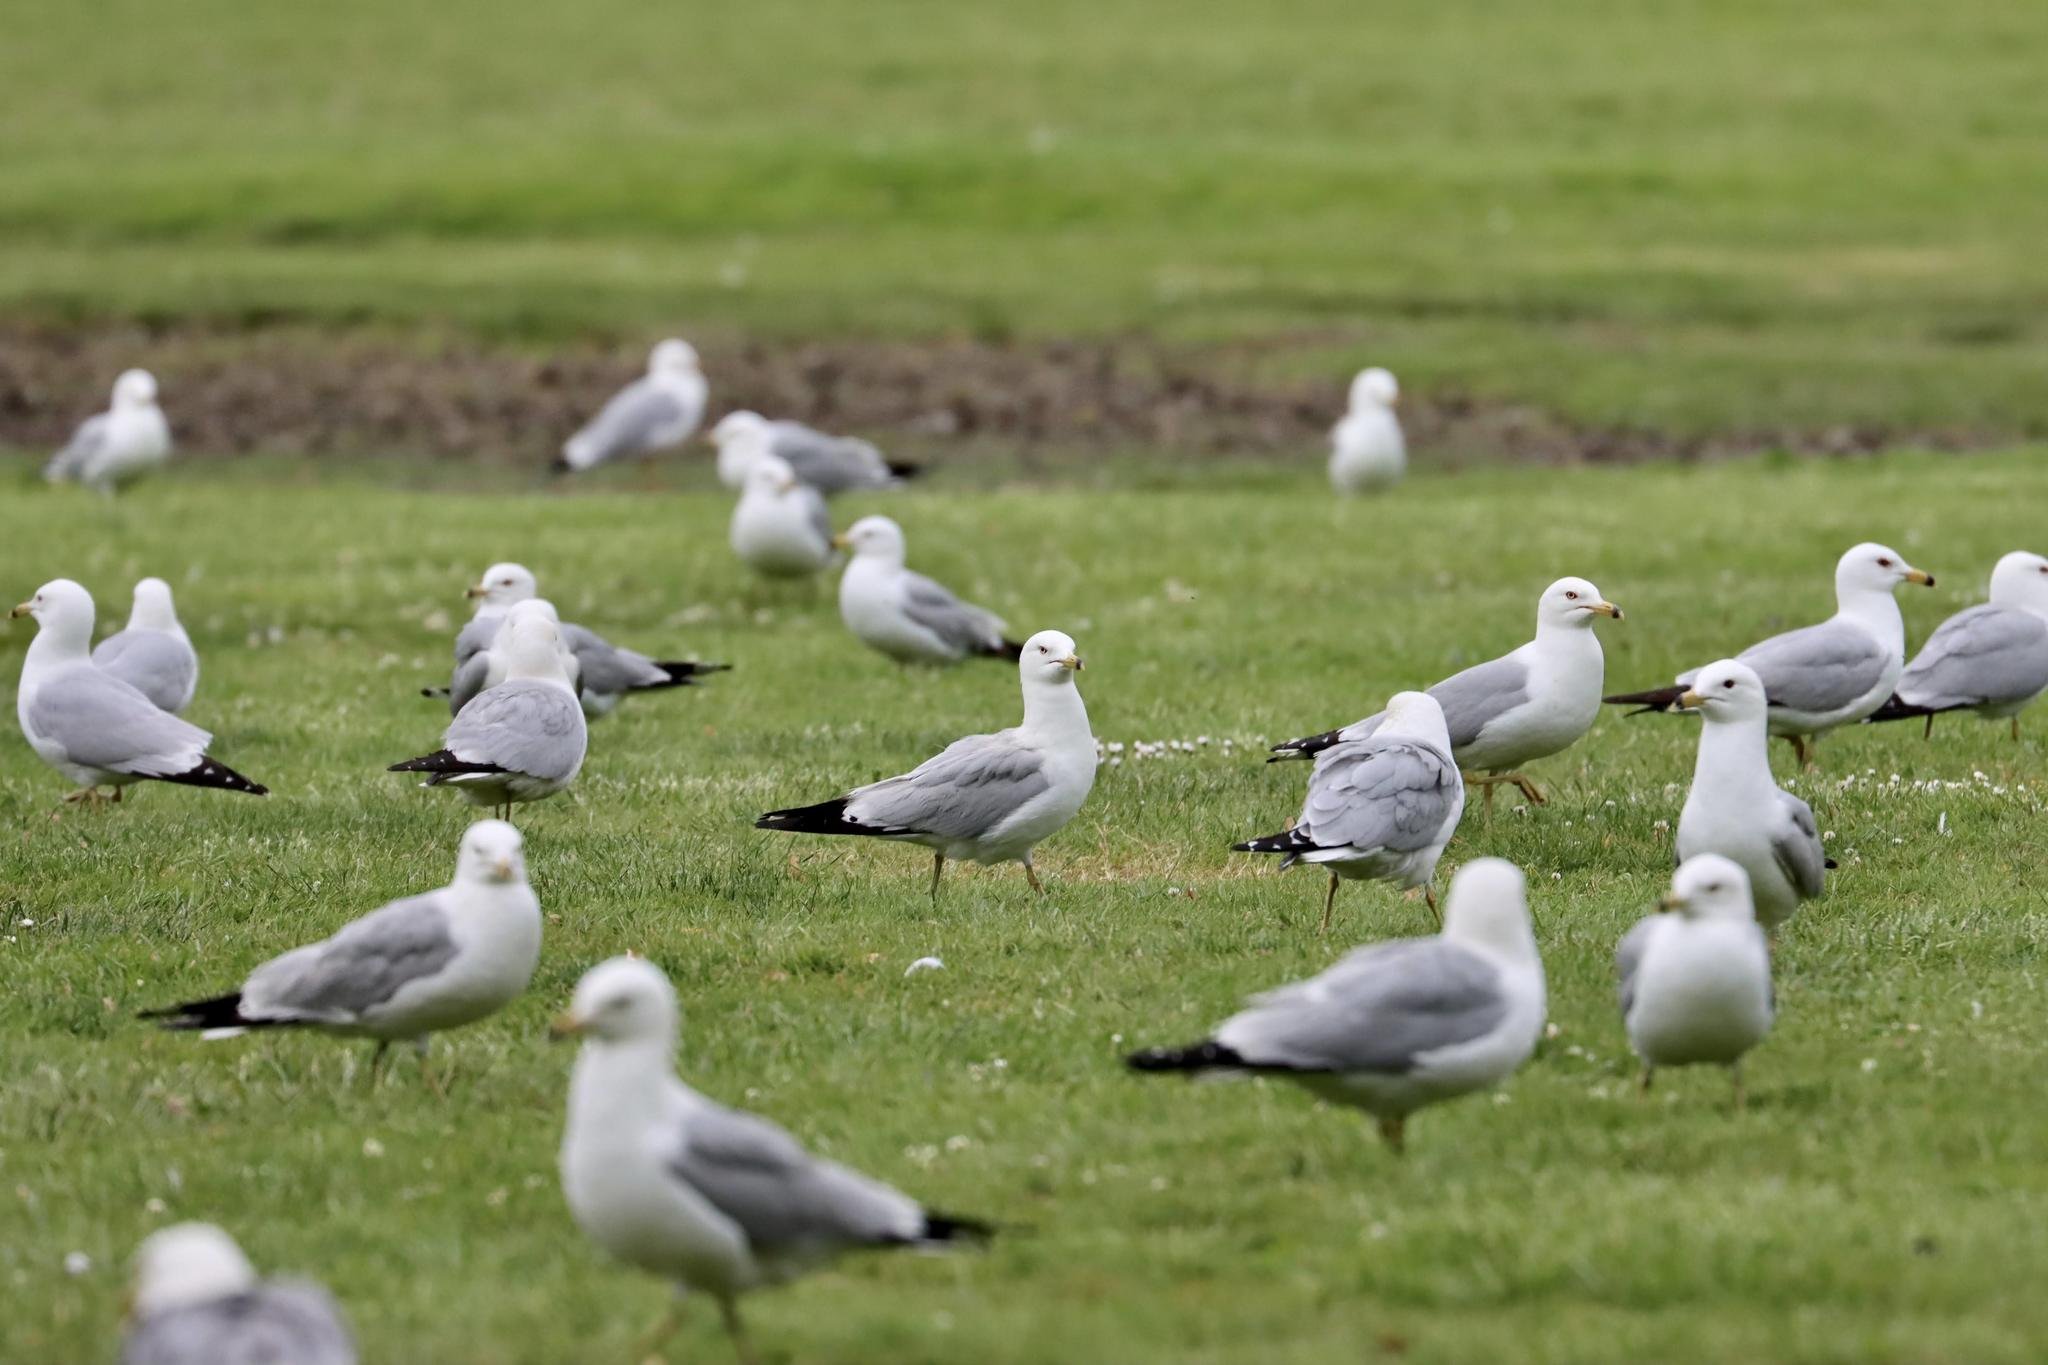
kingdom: Animalia
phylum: Chordata
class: Aves
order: Charadriiformes
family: Laridae
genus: Larus
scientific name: Larus delawarensis
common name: Ring-billed gull
